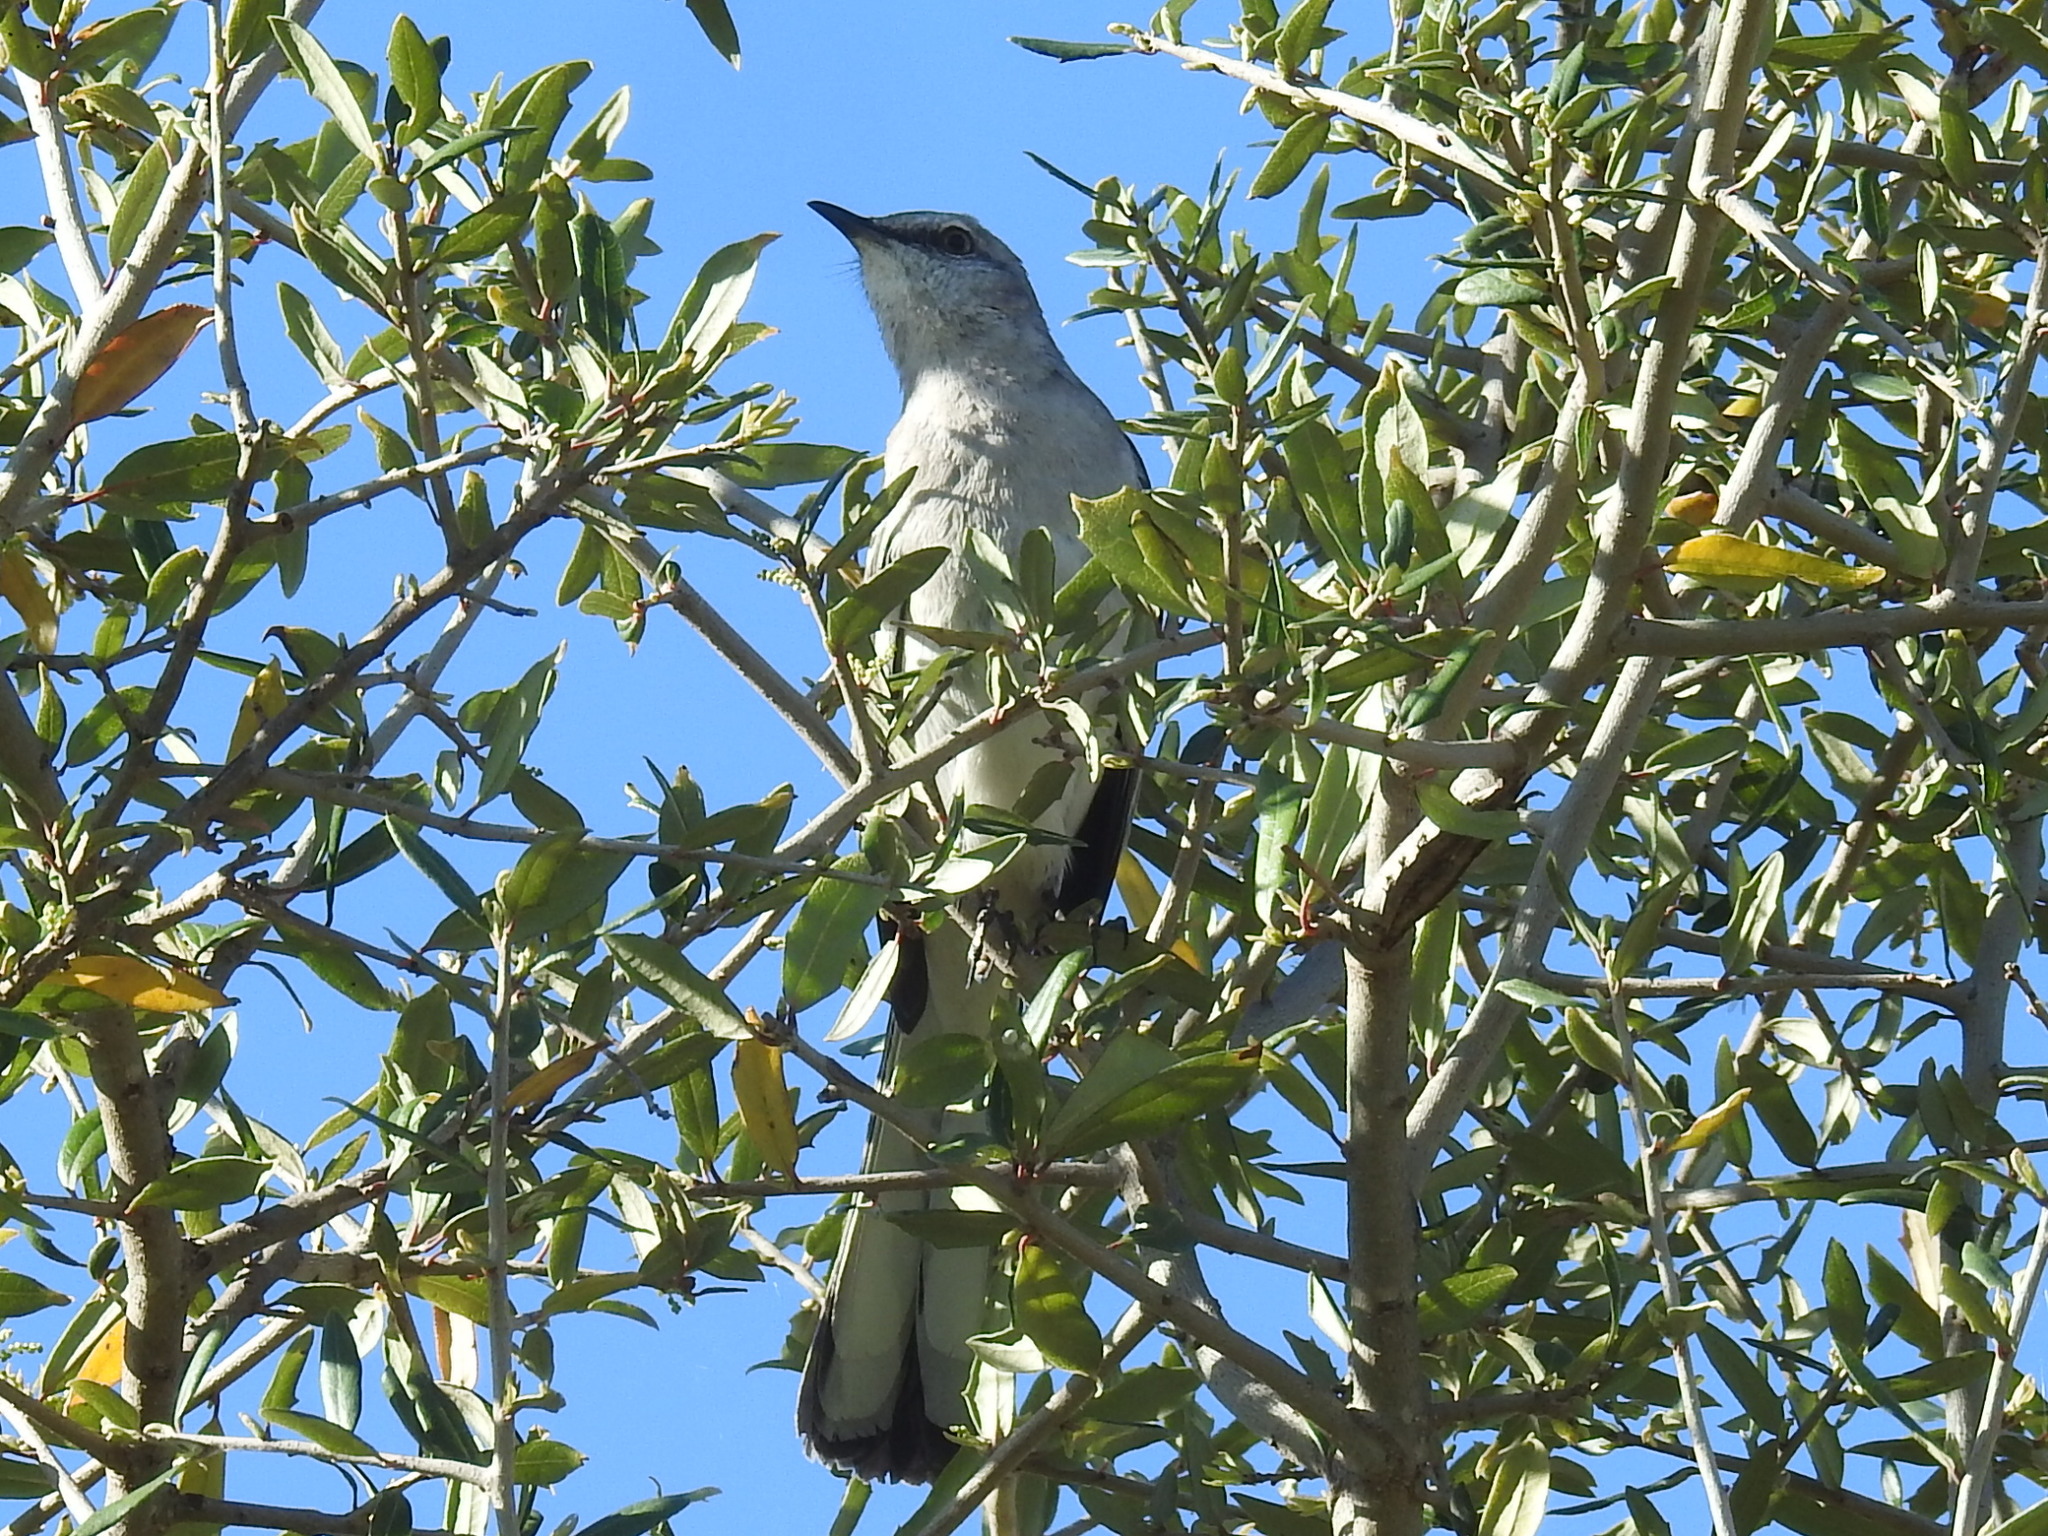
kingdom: Animalia
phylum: Chordata
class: Aves
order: Passeriformes
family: Mimidae
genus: Mimus
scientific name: Mimus polyglottos
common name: Northern mockingbird
